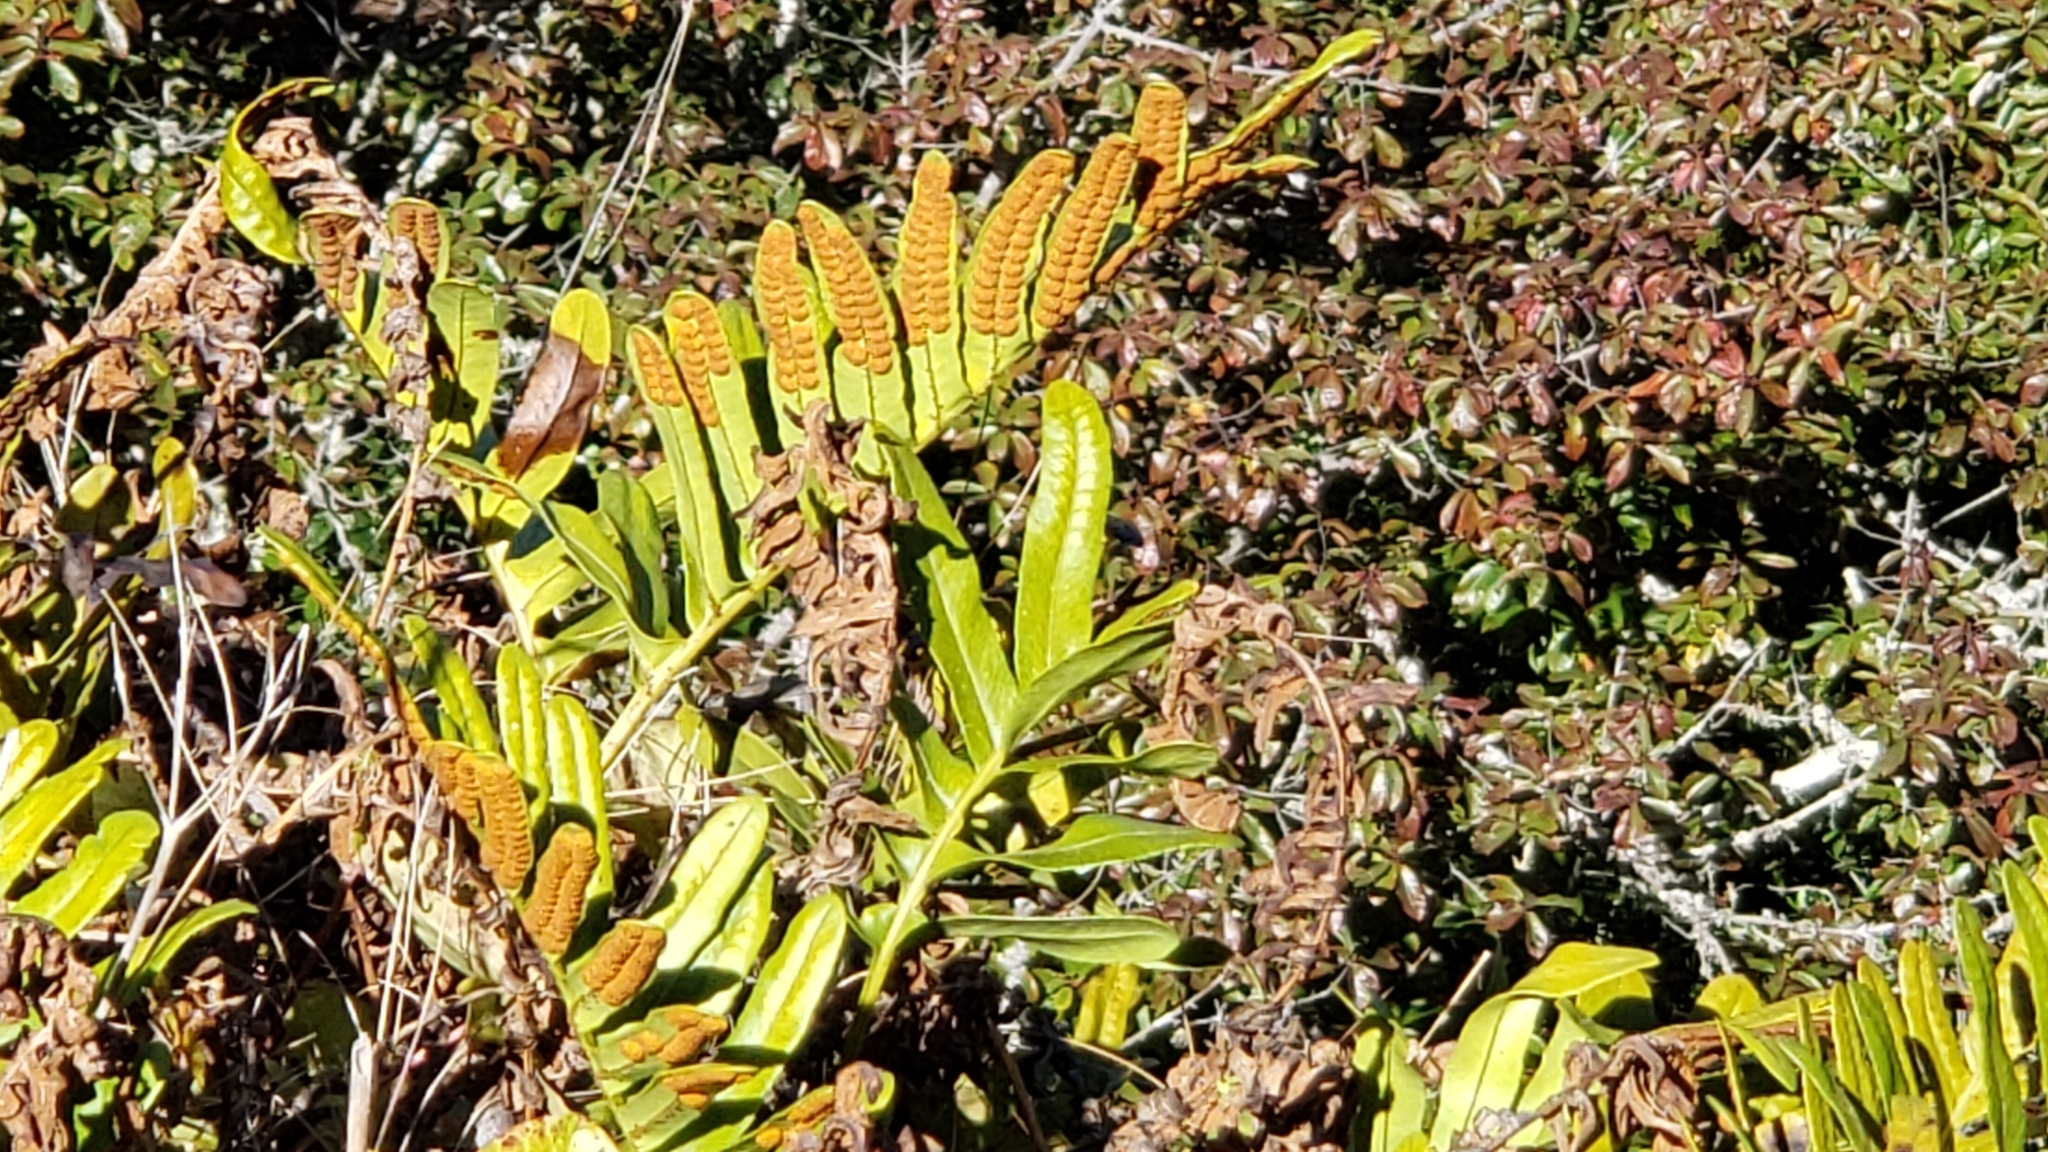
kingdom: Plantae
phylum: Tracheophyta
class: Polypodiopsida
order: Polypodiales
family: Polypodiaceae
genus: Polypodium
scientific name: Polypodium scouleri
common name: Scouler's polypody
